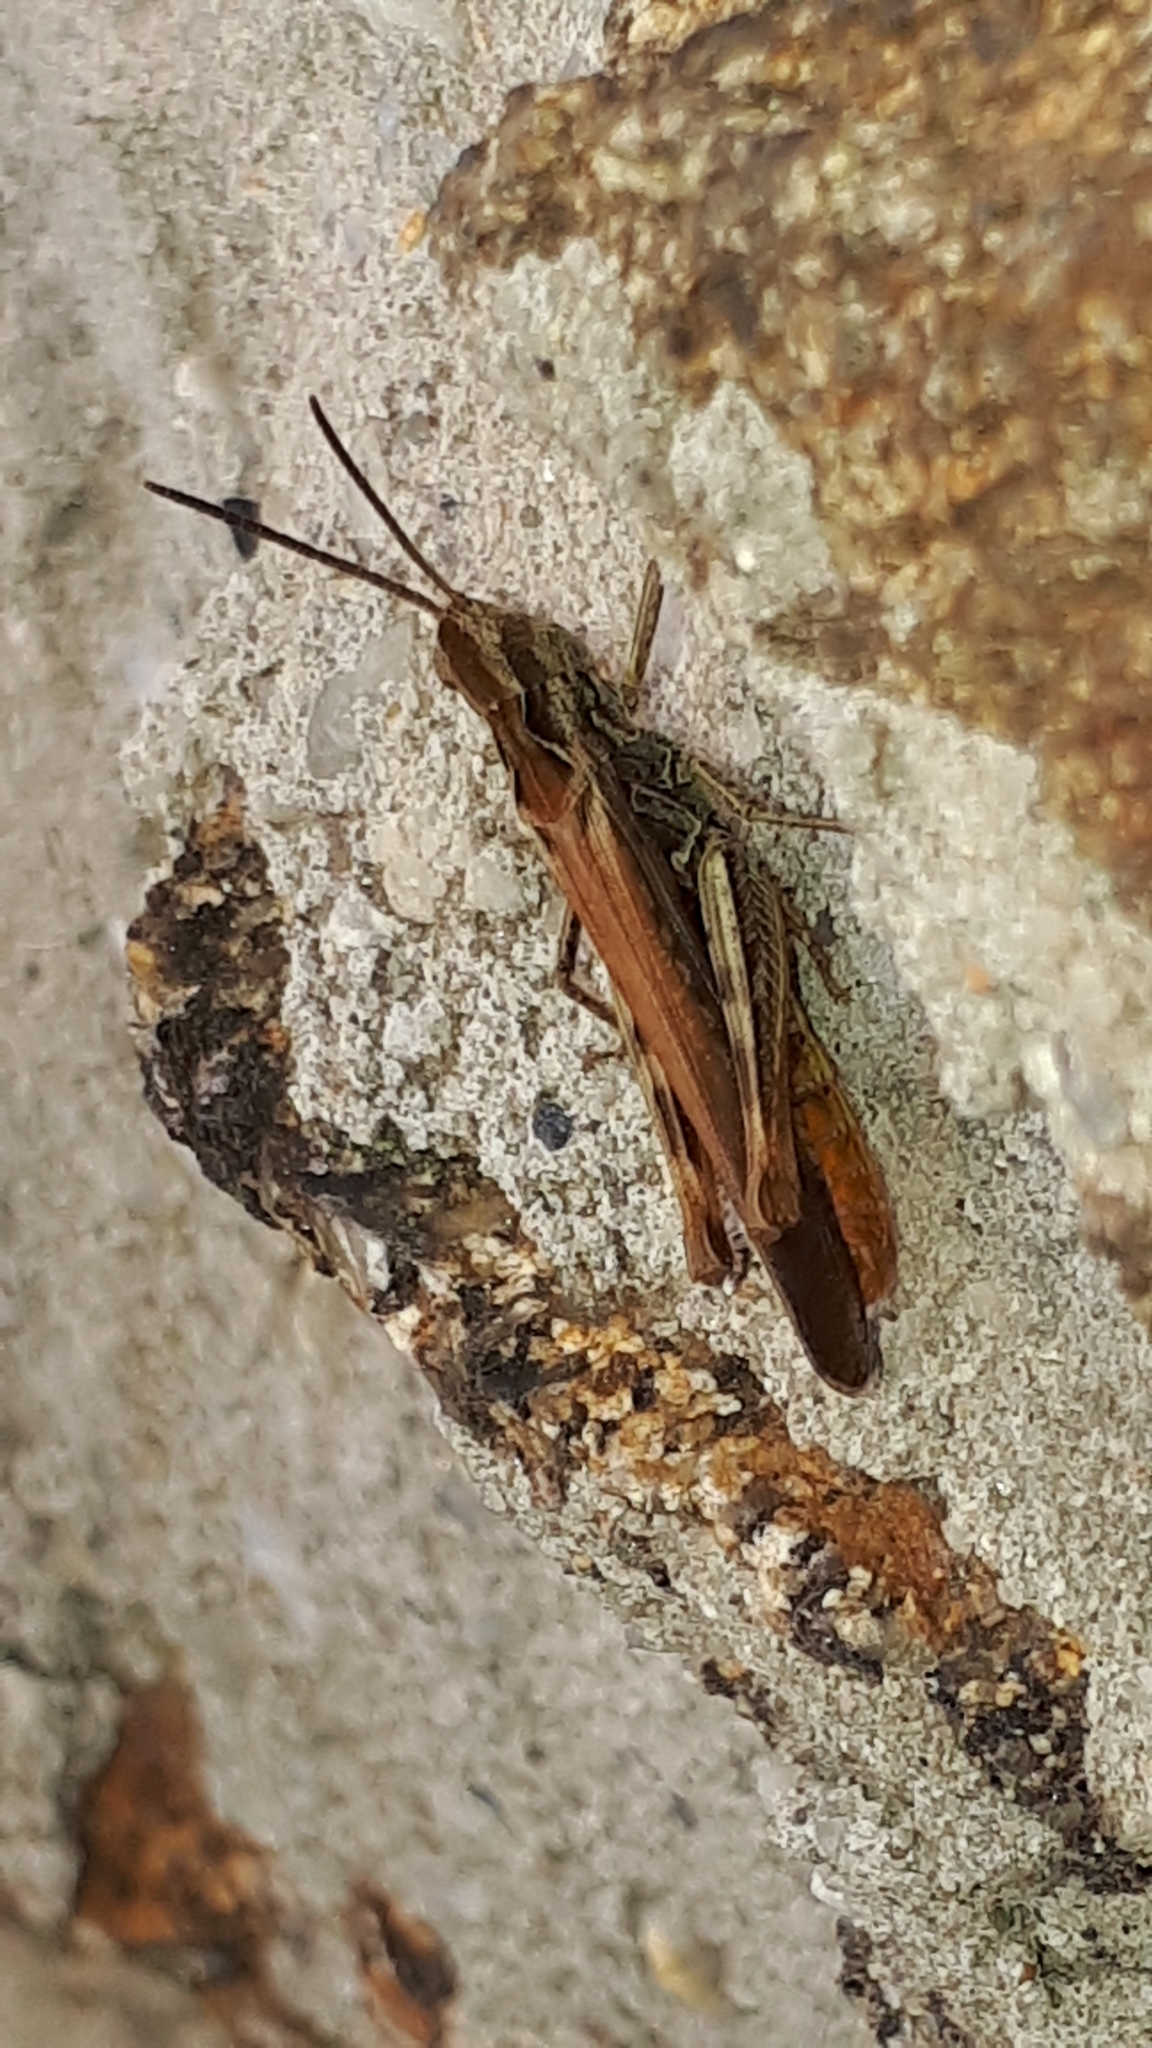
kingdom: Animalia
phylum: Arthropoda
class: Insecta
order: Orthoptera
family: Acrididae
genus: Chorthippus
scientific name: Chorthippus brunneus
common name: Field grasshopper
